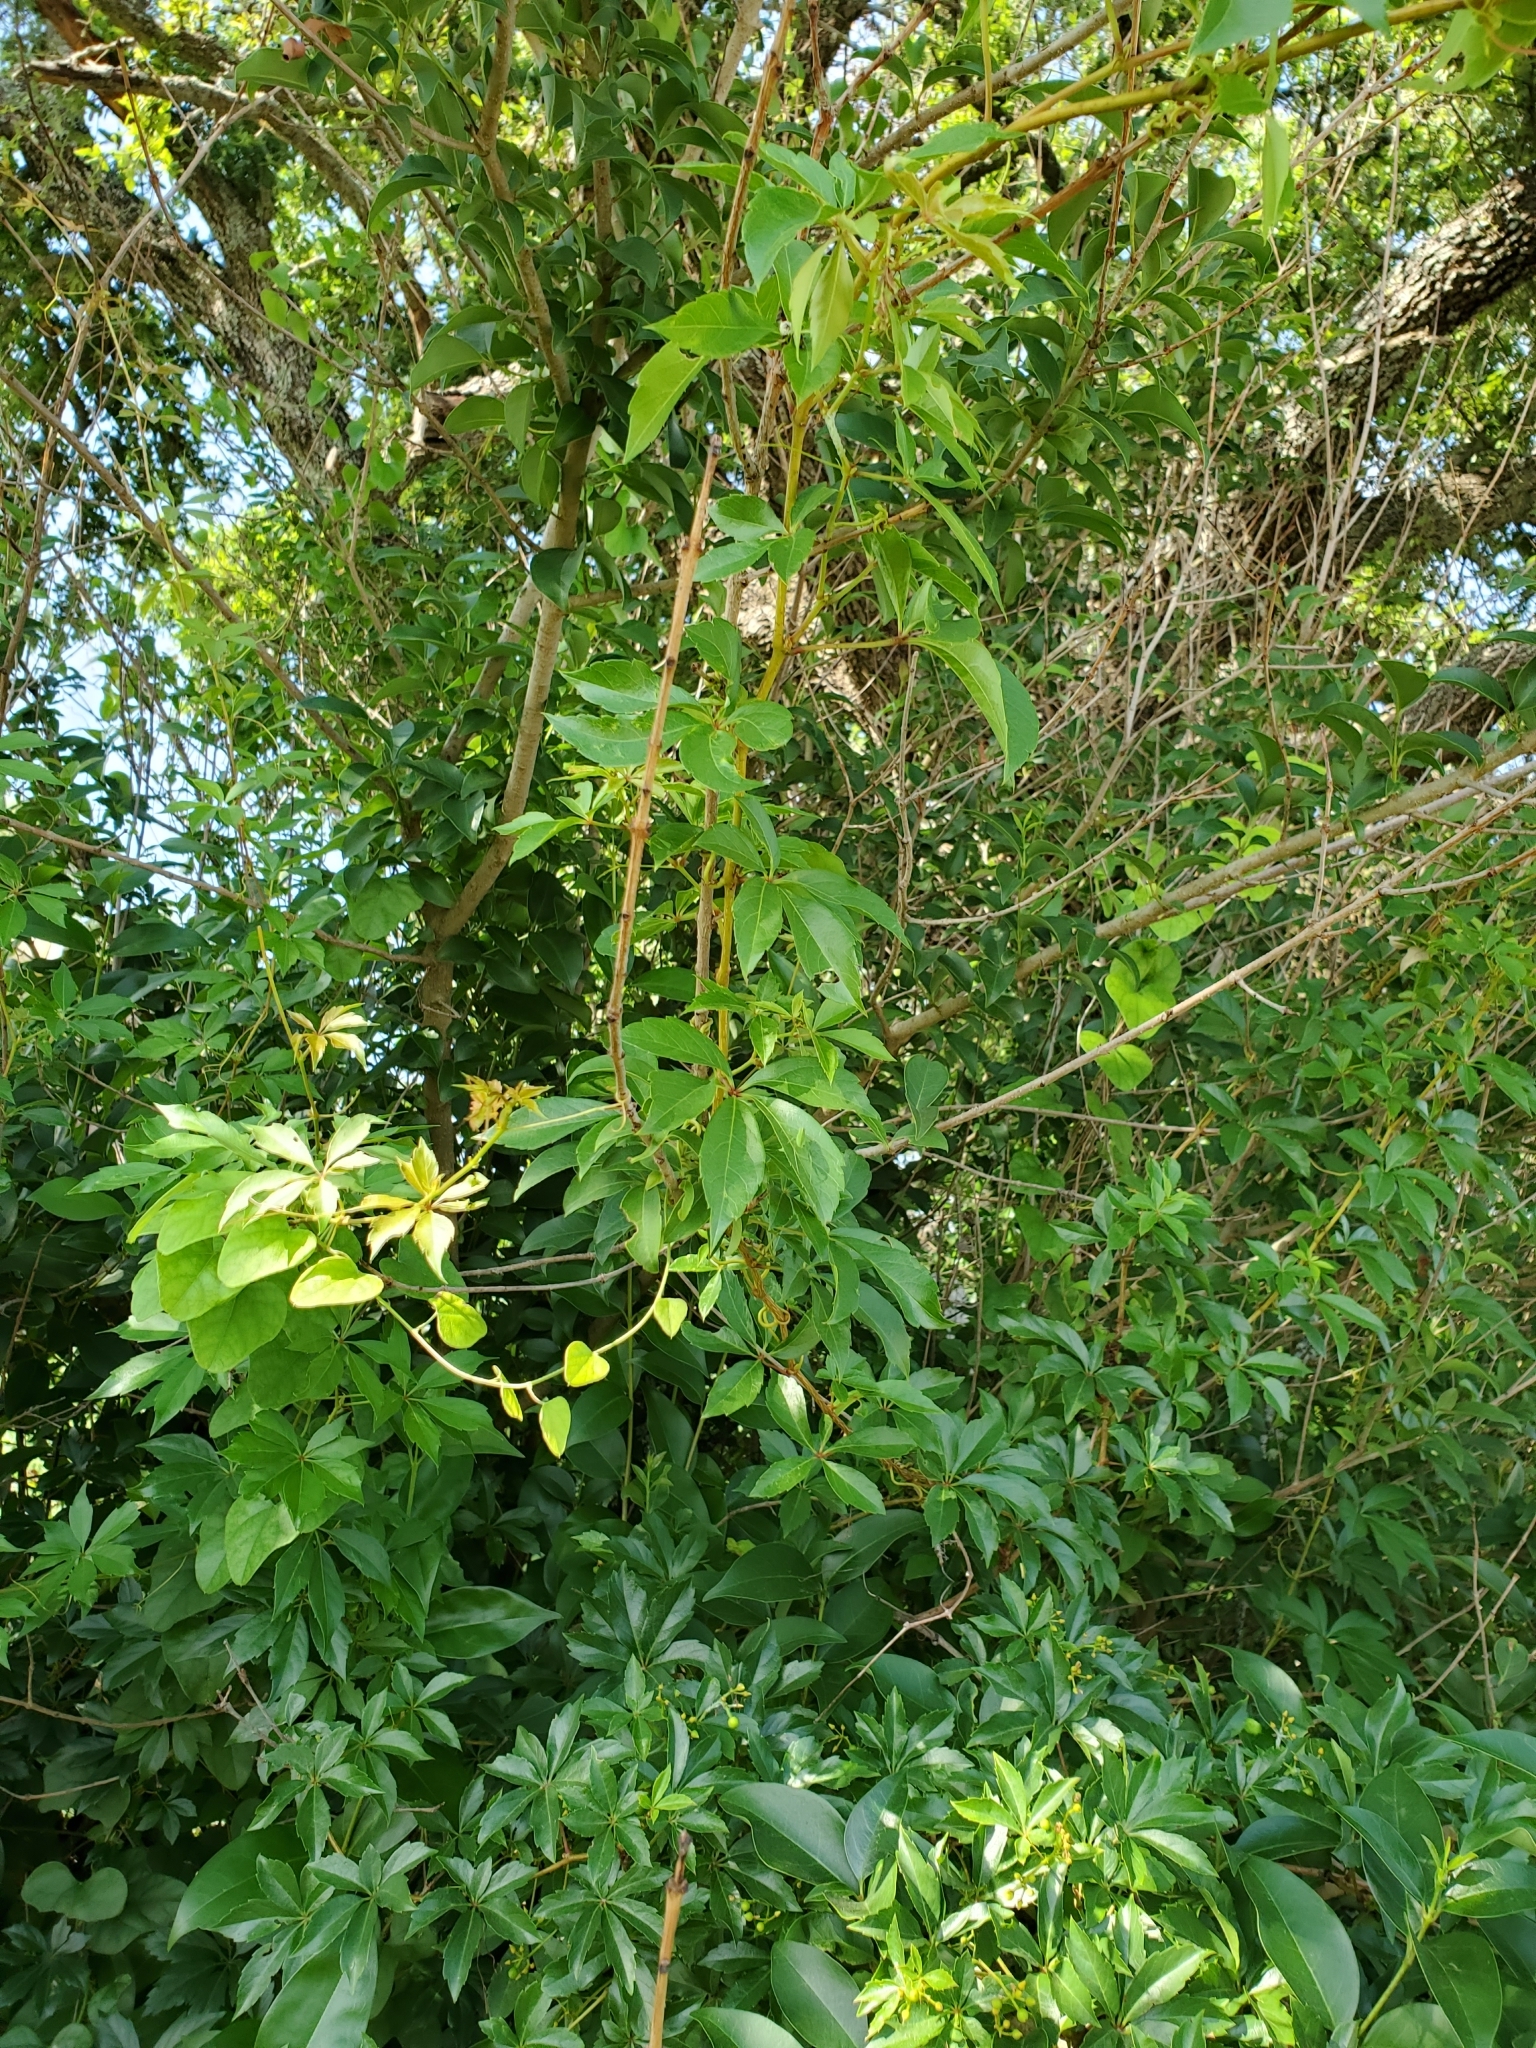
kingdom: Plantae
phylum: Tracheophyta
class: Magnoliopsida
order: Vitales
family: Vitaceae
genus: Parthenocissus
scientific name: Parthenocissus quinquefolia
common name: Virginia-creeper
